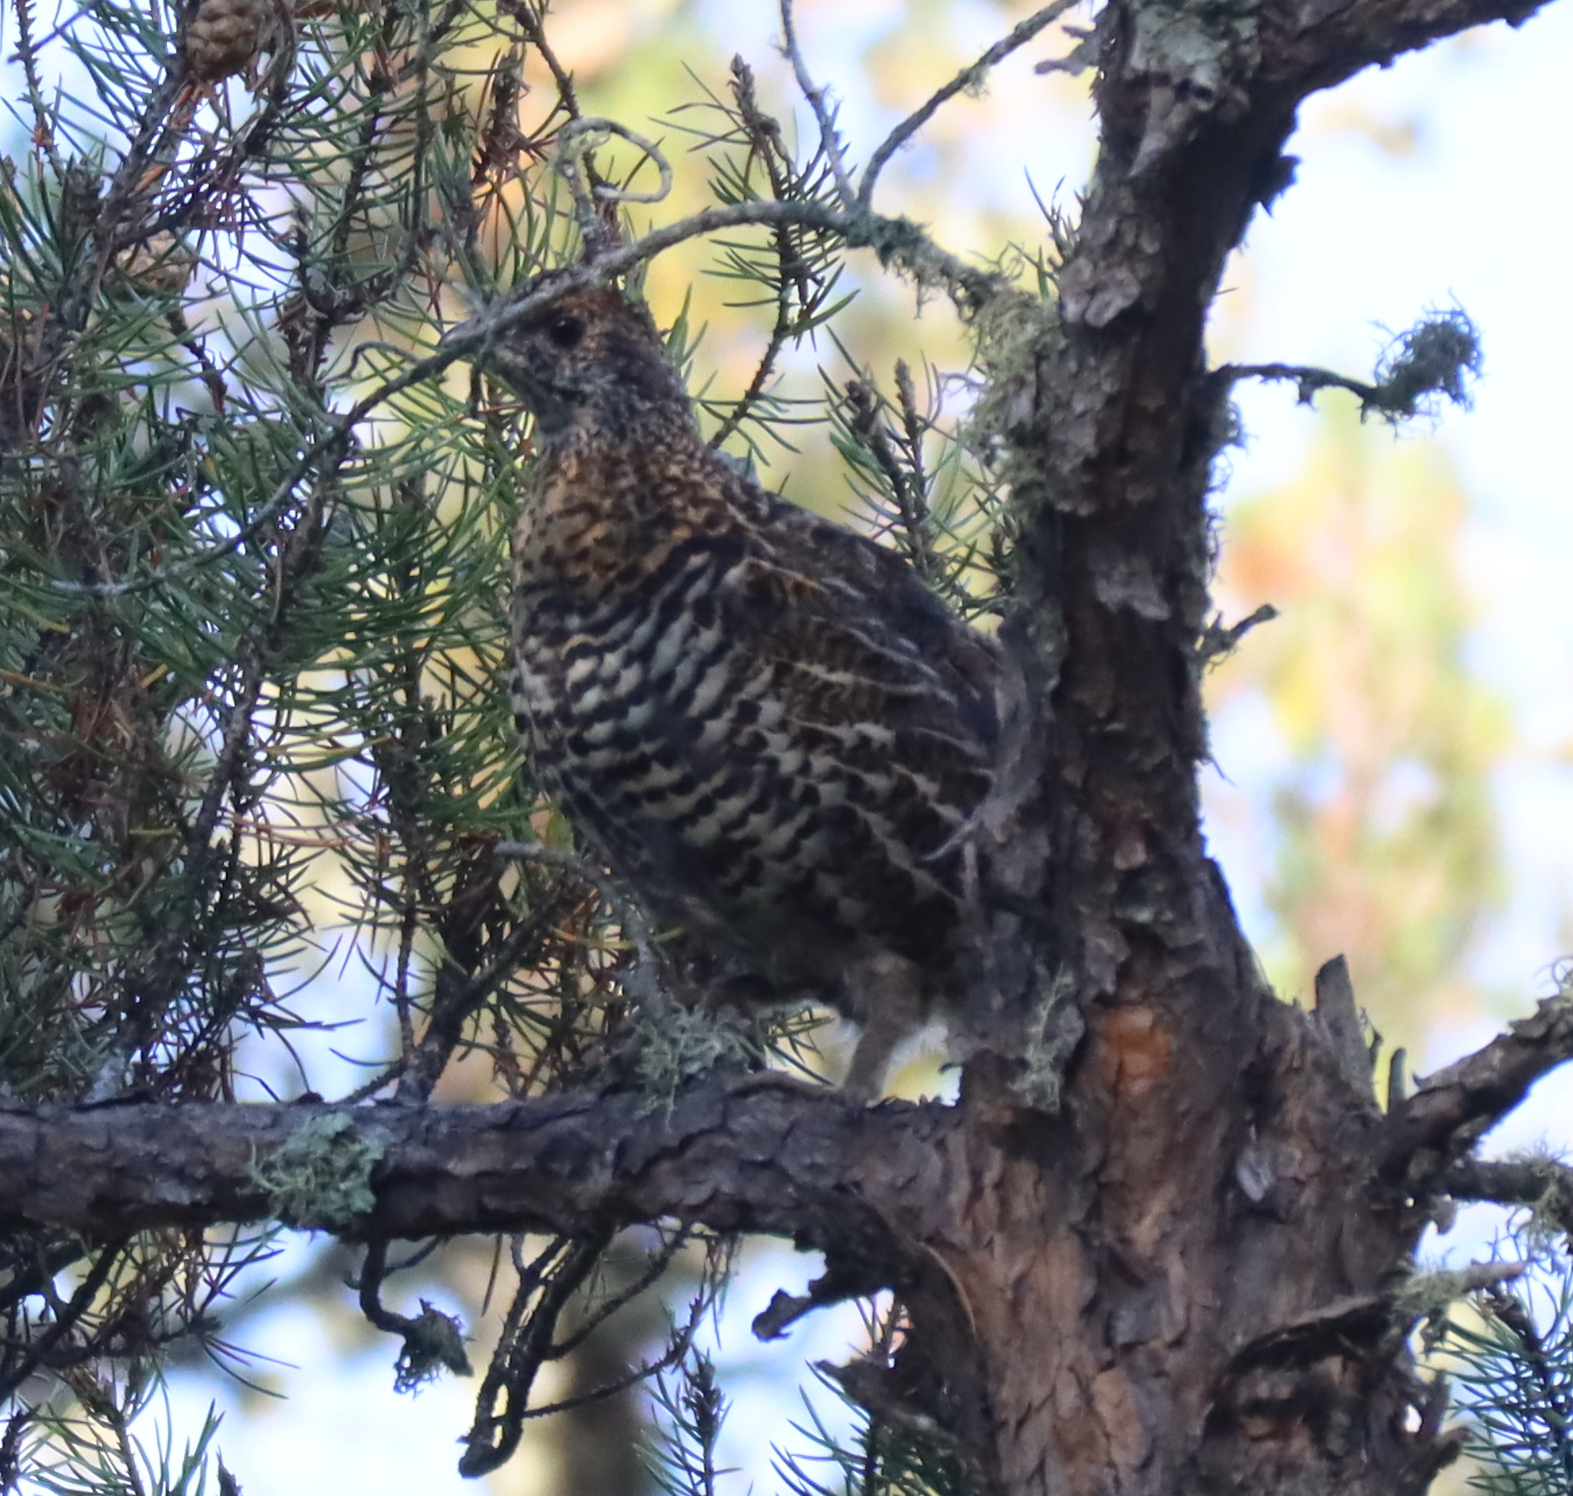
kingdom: Animalia
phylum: Chordata
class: Aves
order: Galliformes
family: Phasianidae
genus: Bonasa
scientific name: Bonasa umbellus
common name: Ruffed grouse
